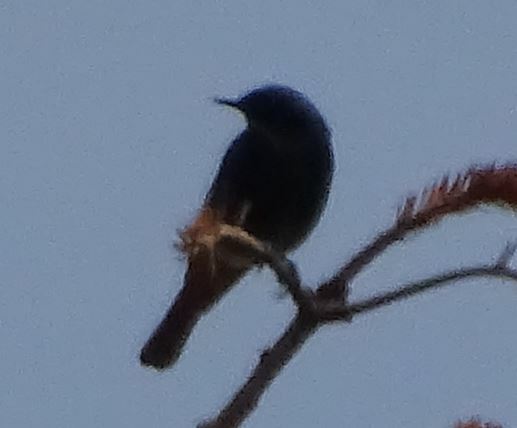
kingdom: Animalia
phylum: Chordata
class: Aves
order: Passeriformes
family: Muscicapidae
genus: Phoenicurus
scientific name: Phoenicurus ochruros
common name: Black redstart
